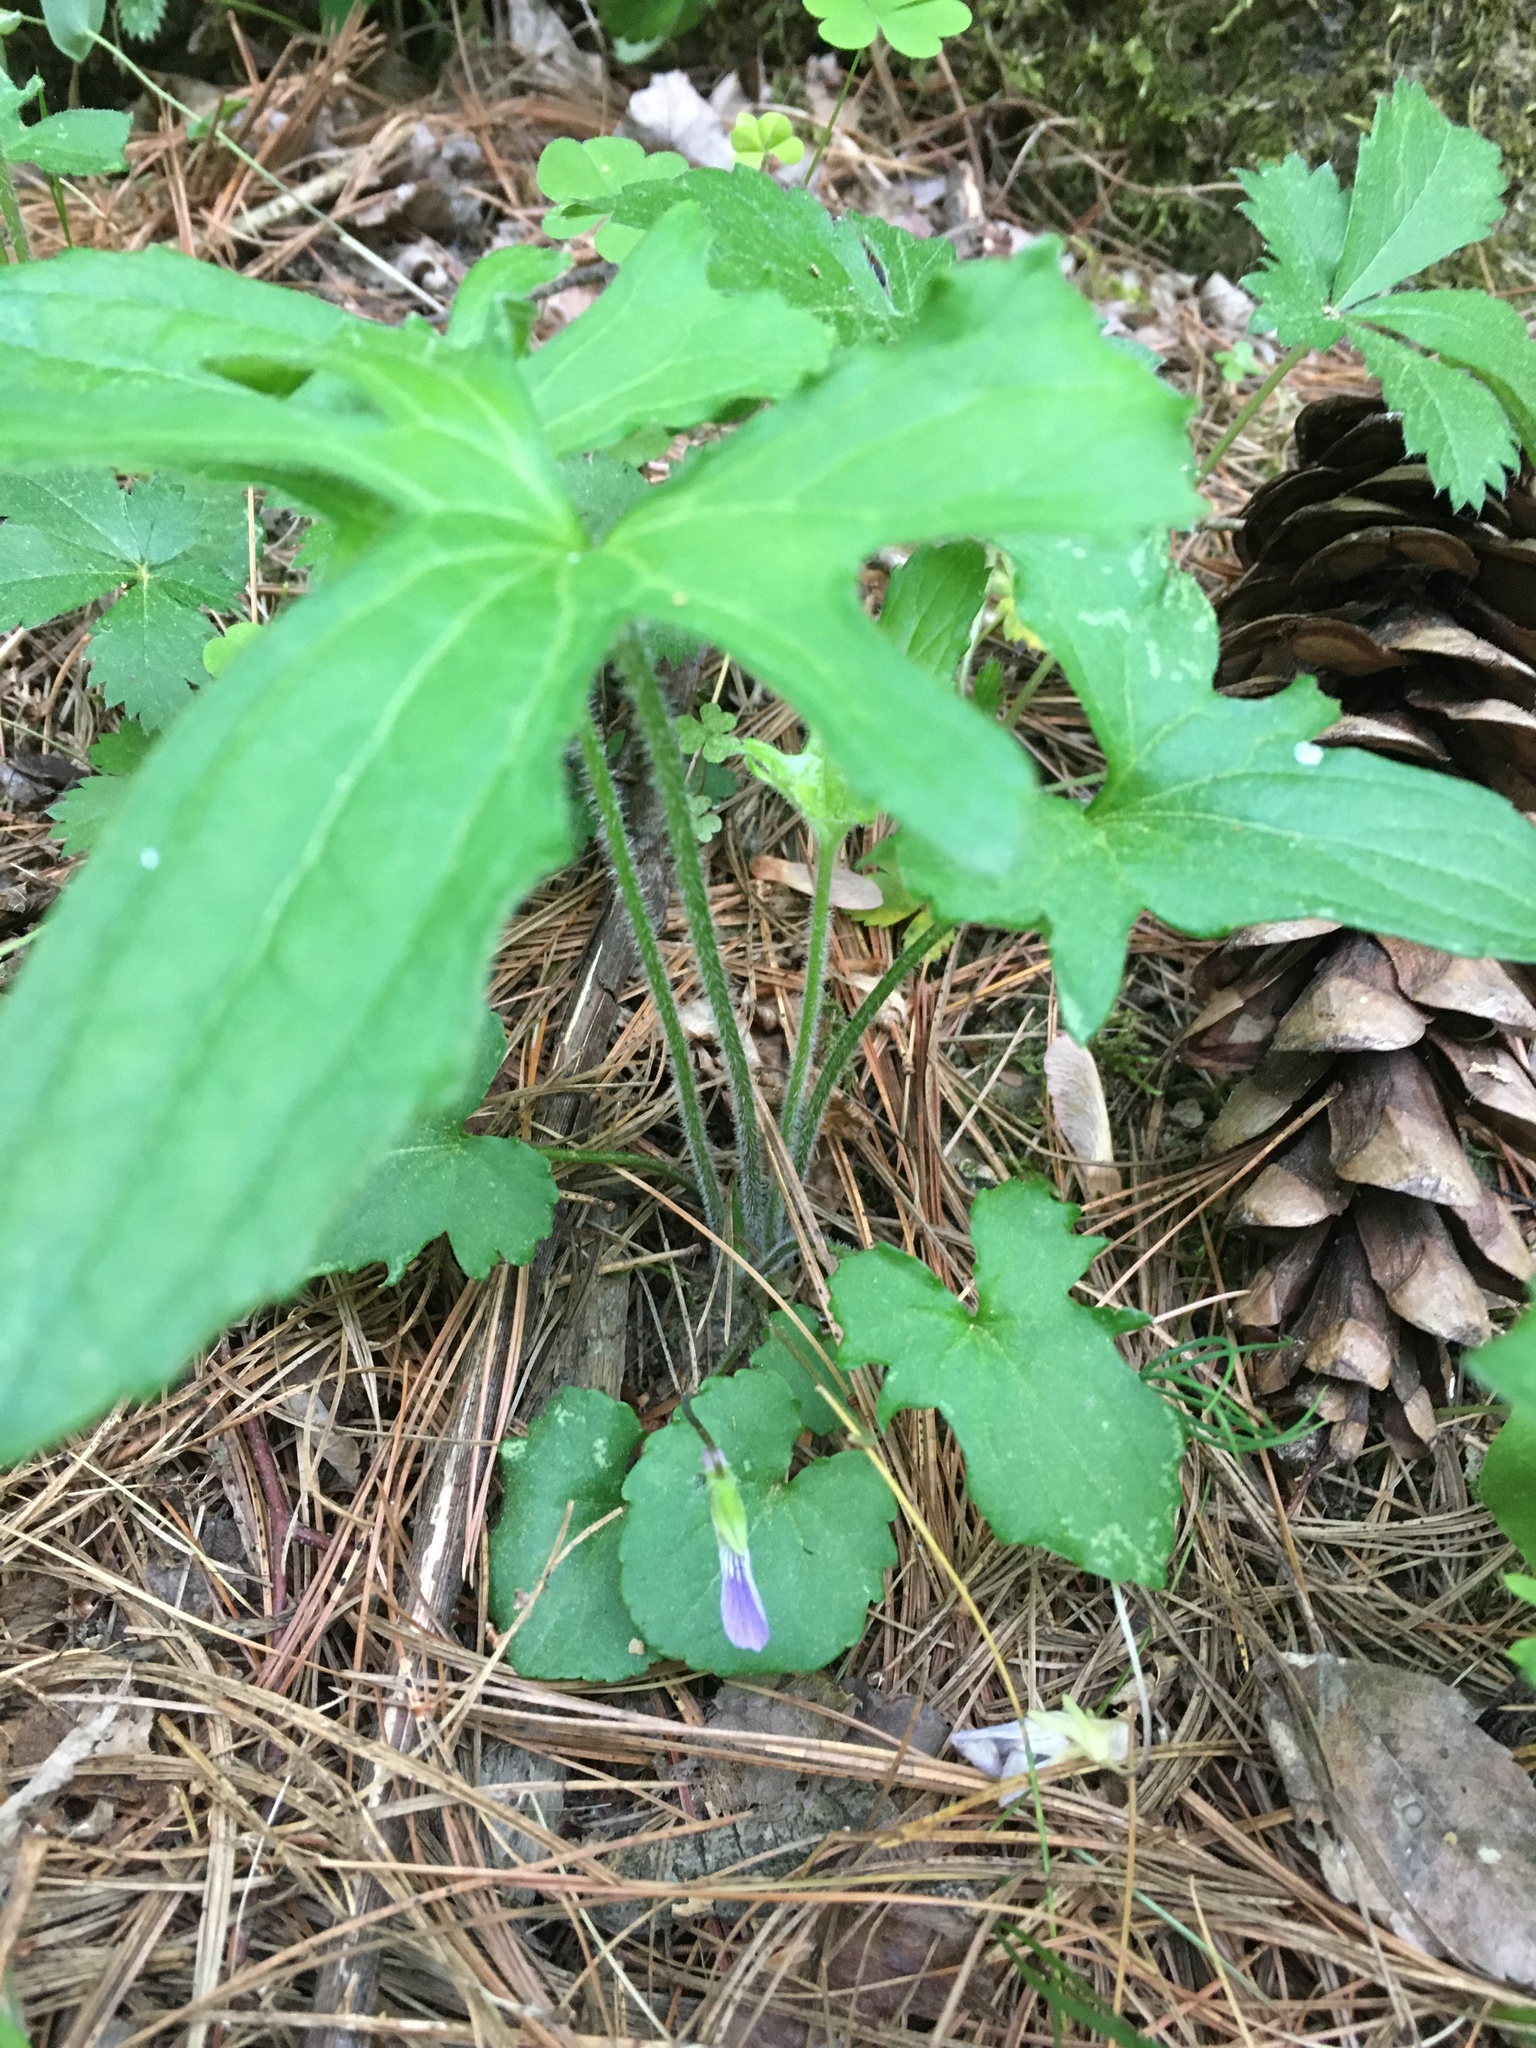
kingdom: Plantae
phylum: Tracheophyta
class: Magnoliopsida
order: Malpighiales
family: Violaceae
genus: Viola
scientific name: Viola palmata
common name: Early blue violet
